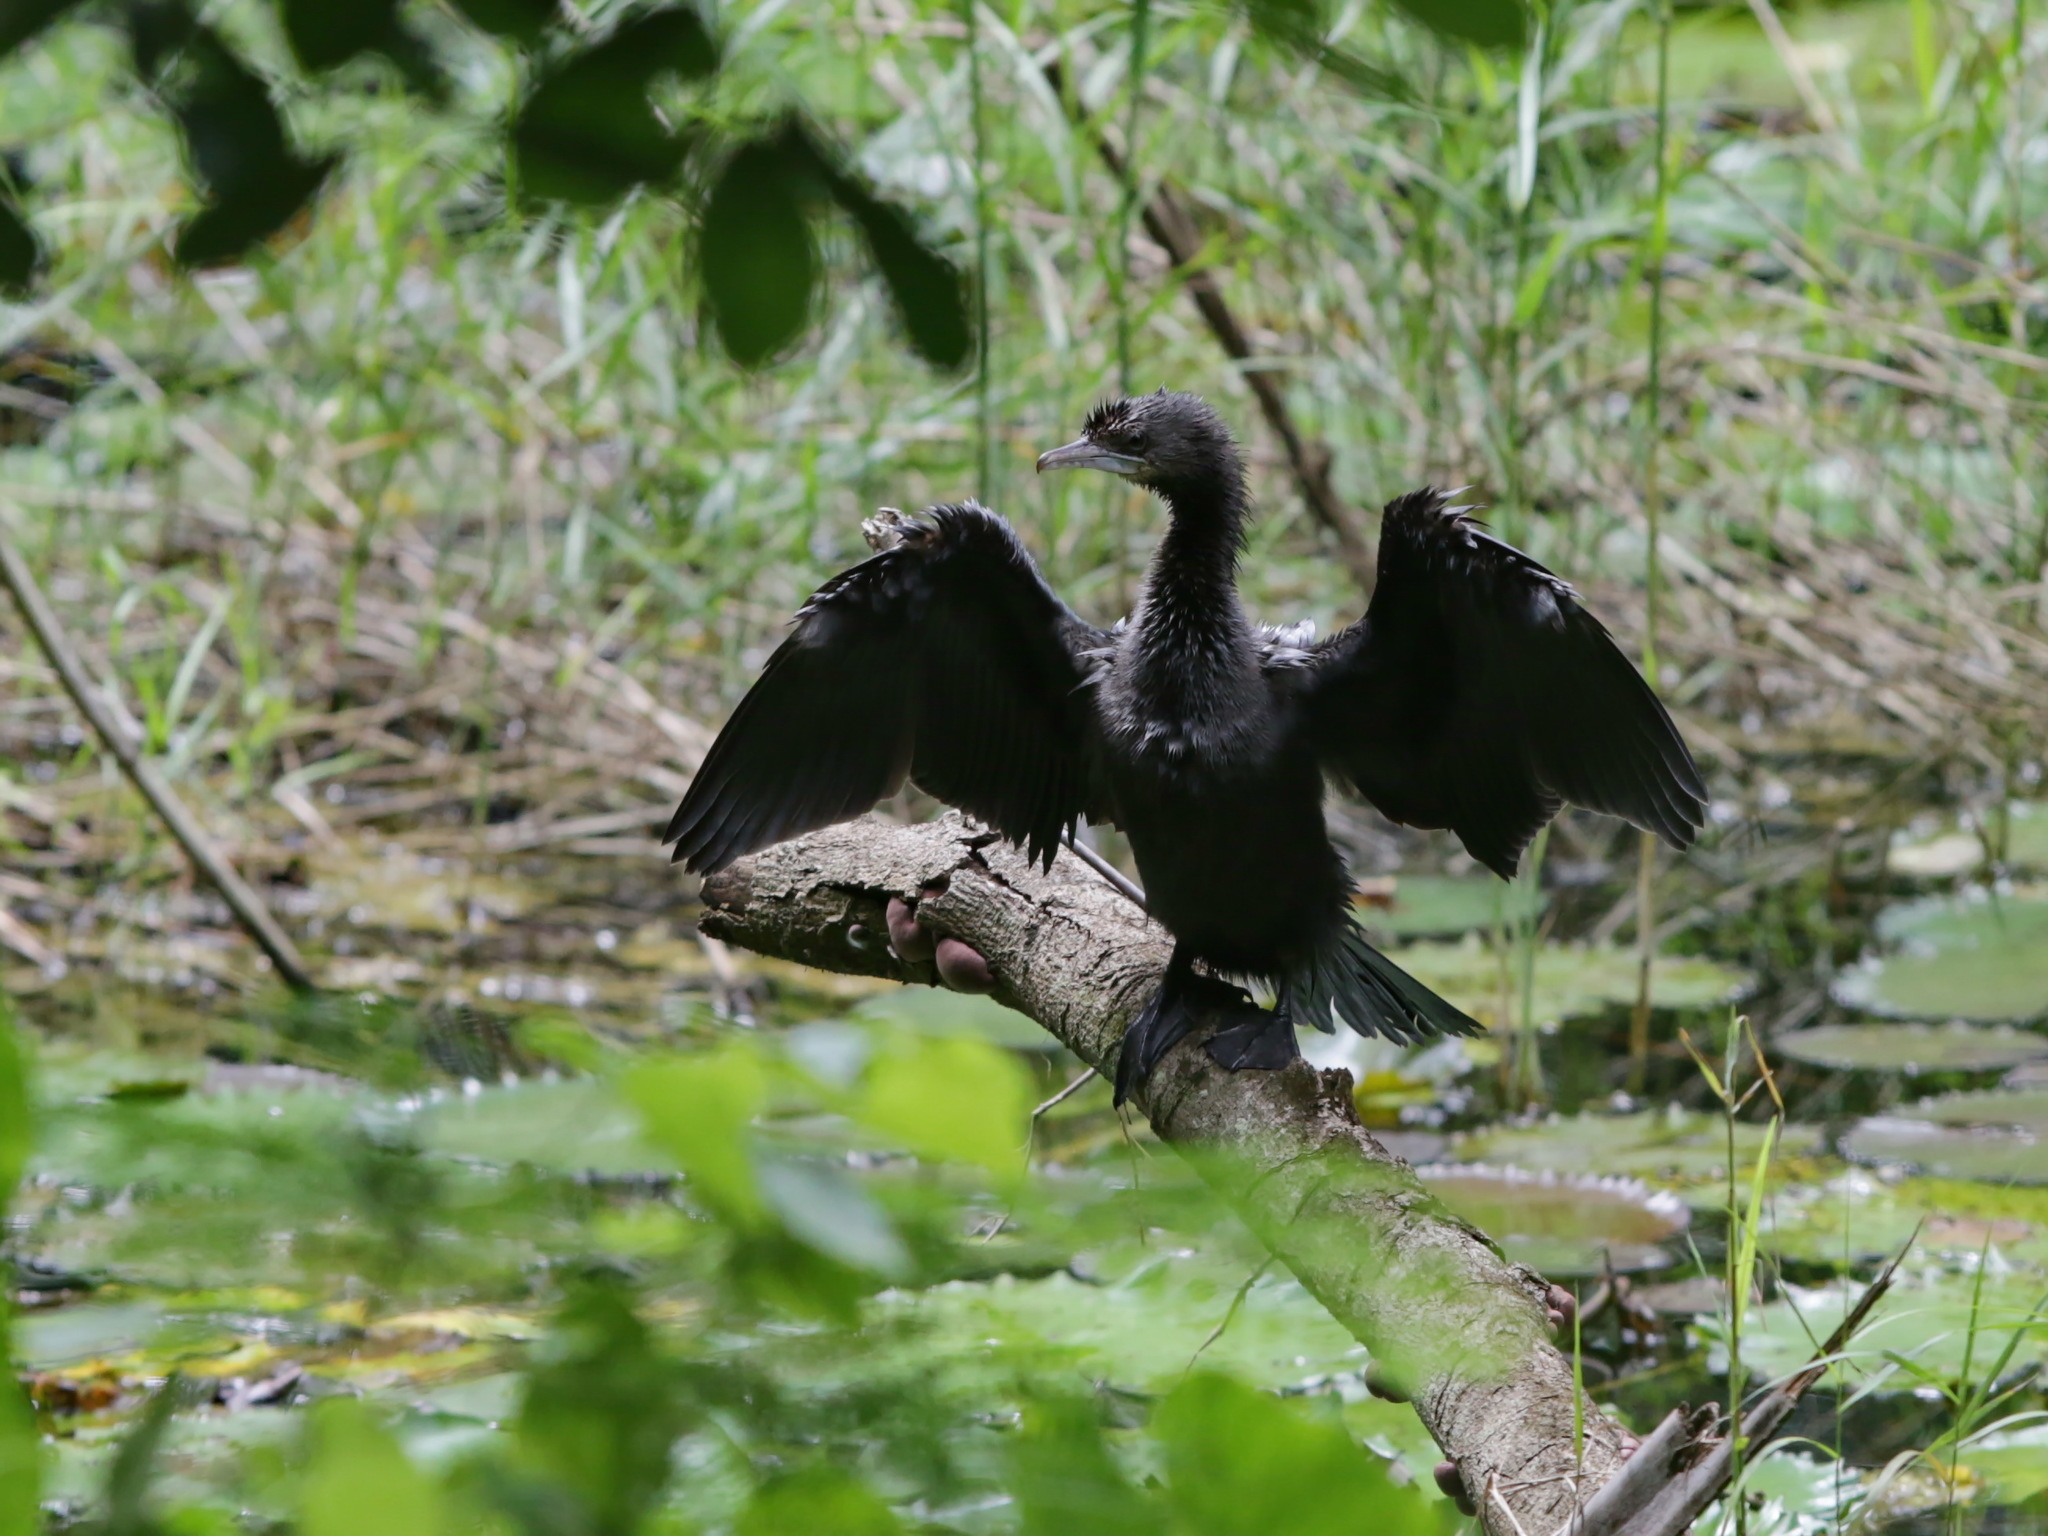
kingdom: Animalia
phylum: Chordata
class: Aves
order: Suliformes
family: Phalacrocoracidae
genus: Microcarbo
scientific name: Microcarbo niger
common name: Little cormorant
